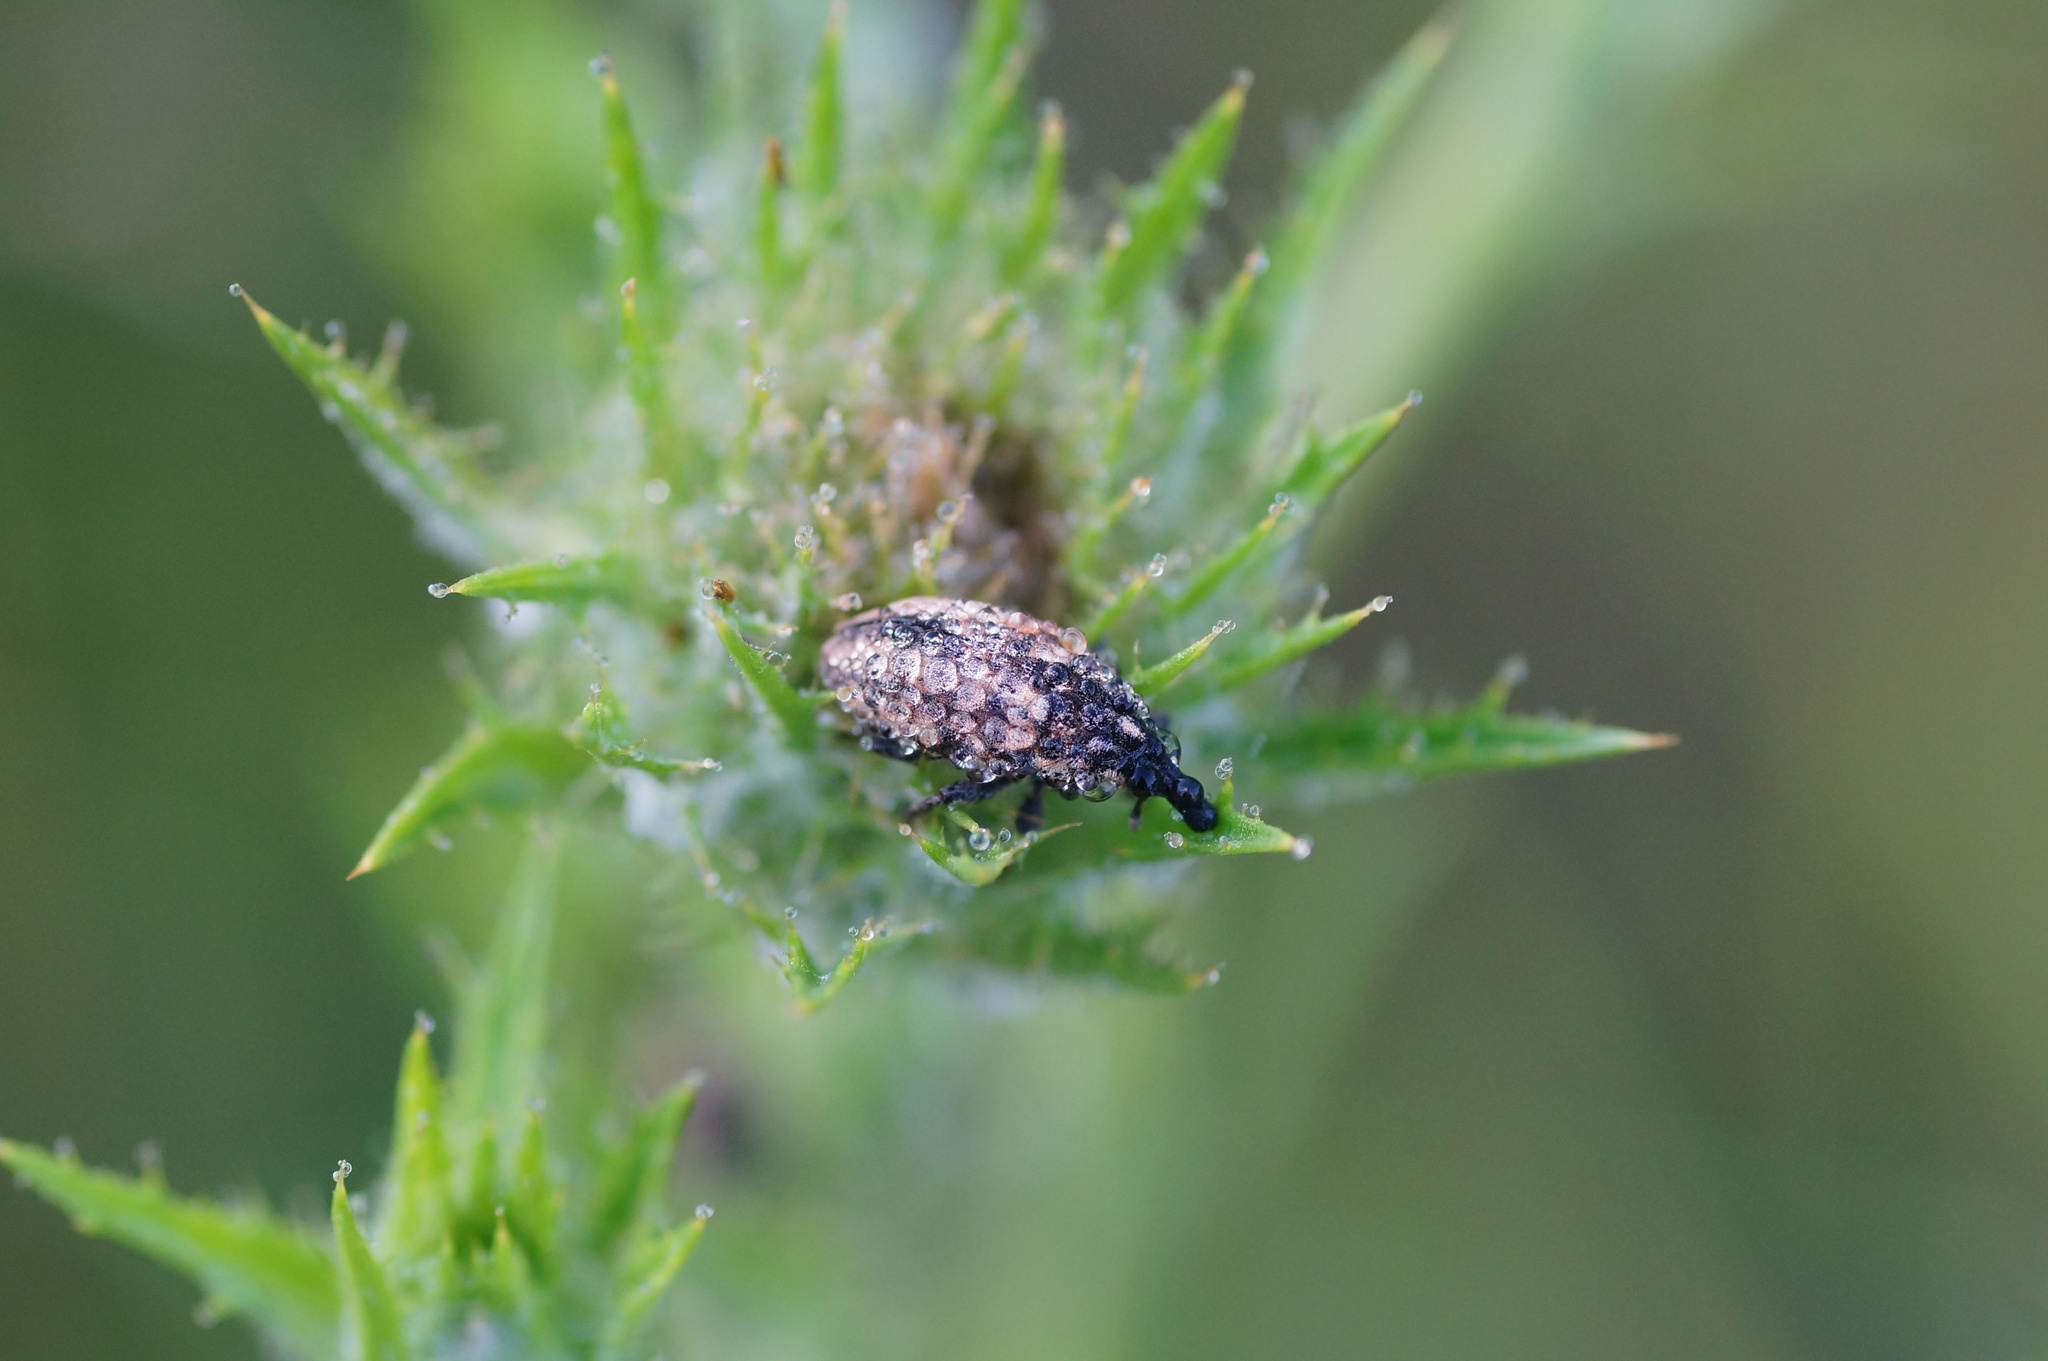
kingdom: Animalia
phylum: Arthropoda
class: Insecta
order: Coleoptera
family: Curculionidae
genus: Larinus
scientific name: Larinus pollinis
